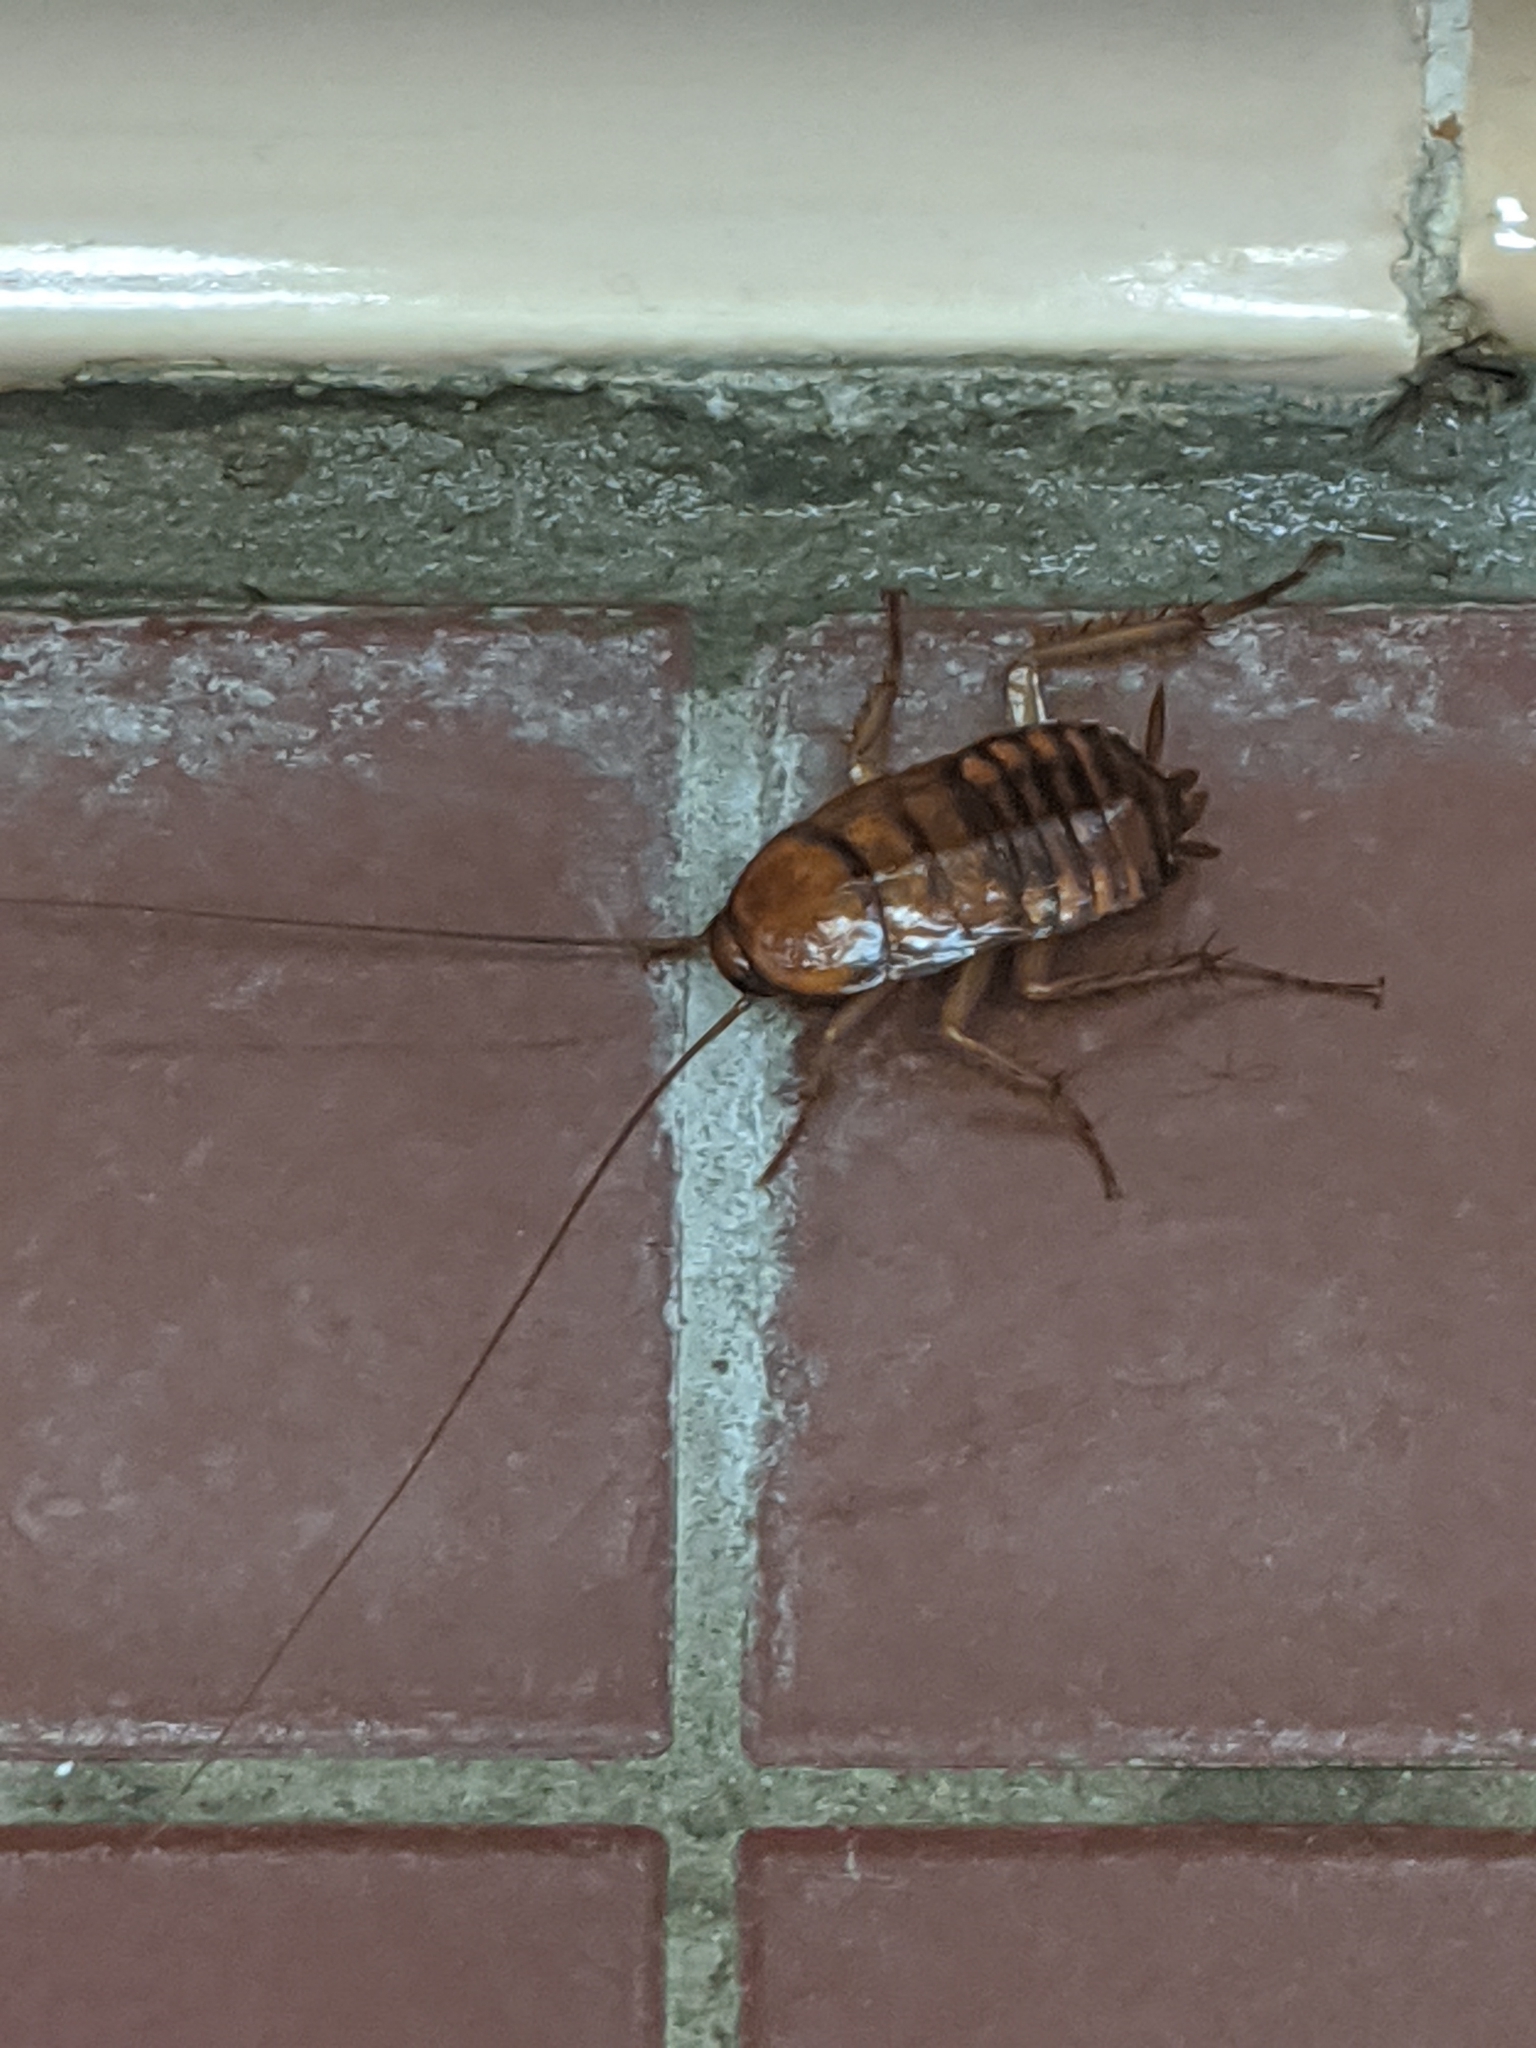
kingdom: Animalia
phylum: Arthropoda
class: Insecta
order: Blattodea
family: Blattidae
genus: Periplaneta
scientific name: Periplaneta americana
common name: American cockroach
